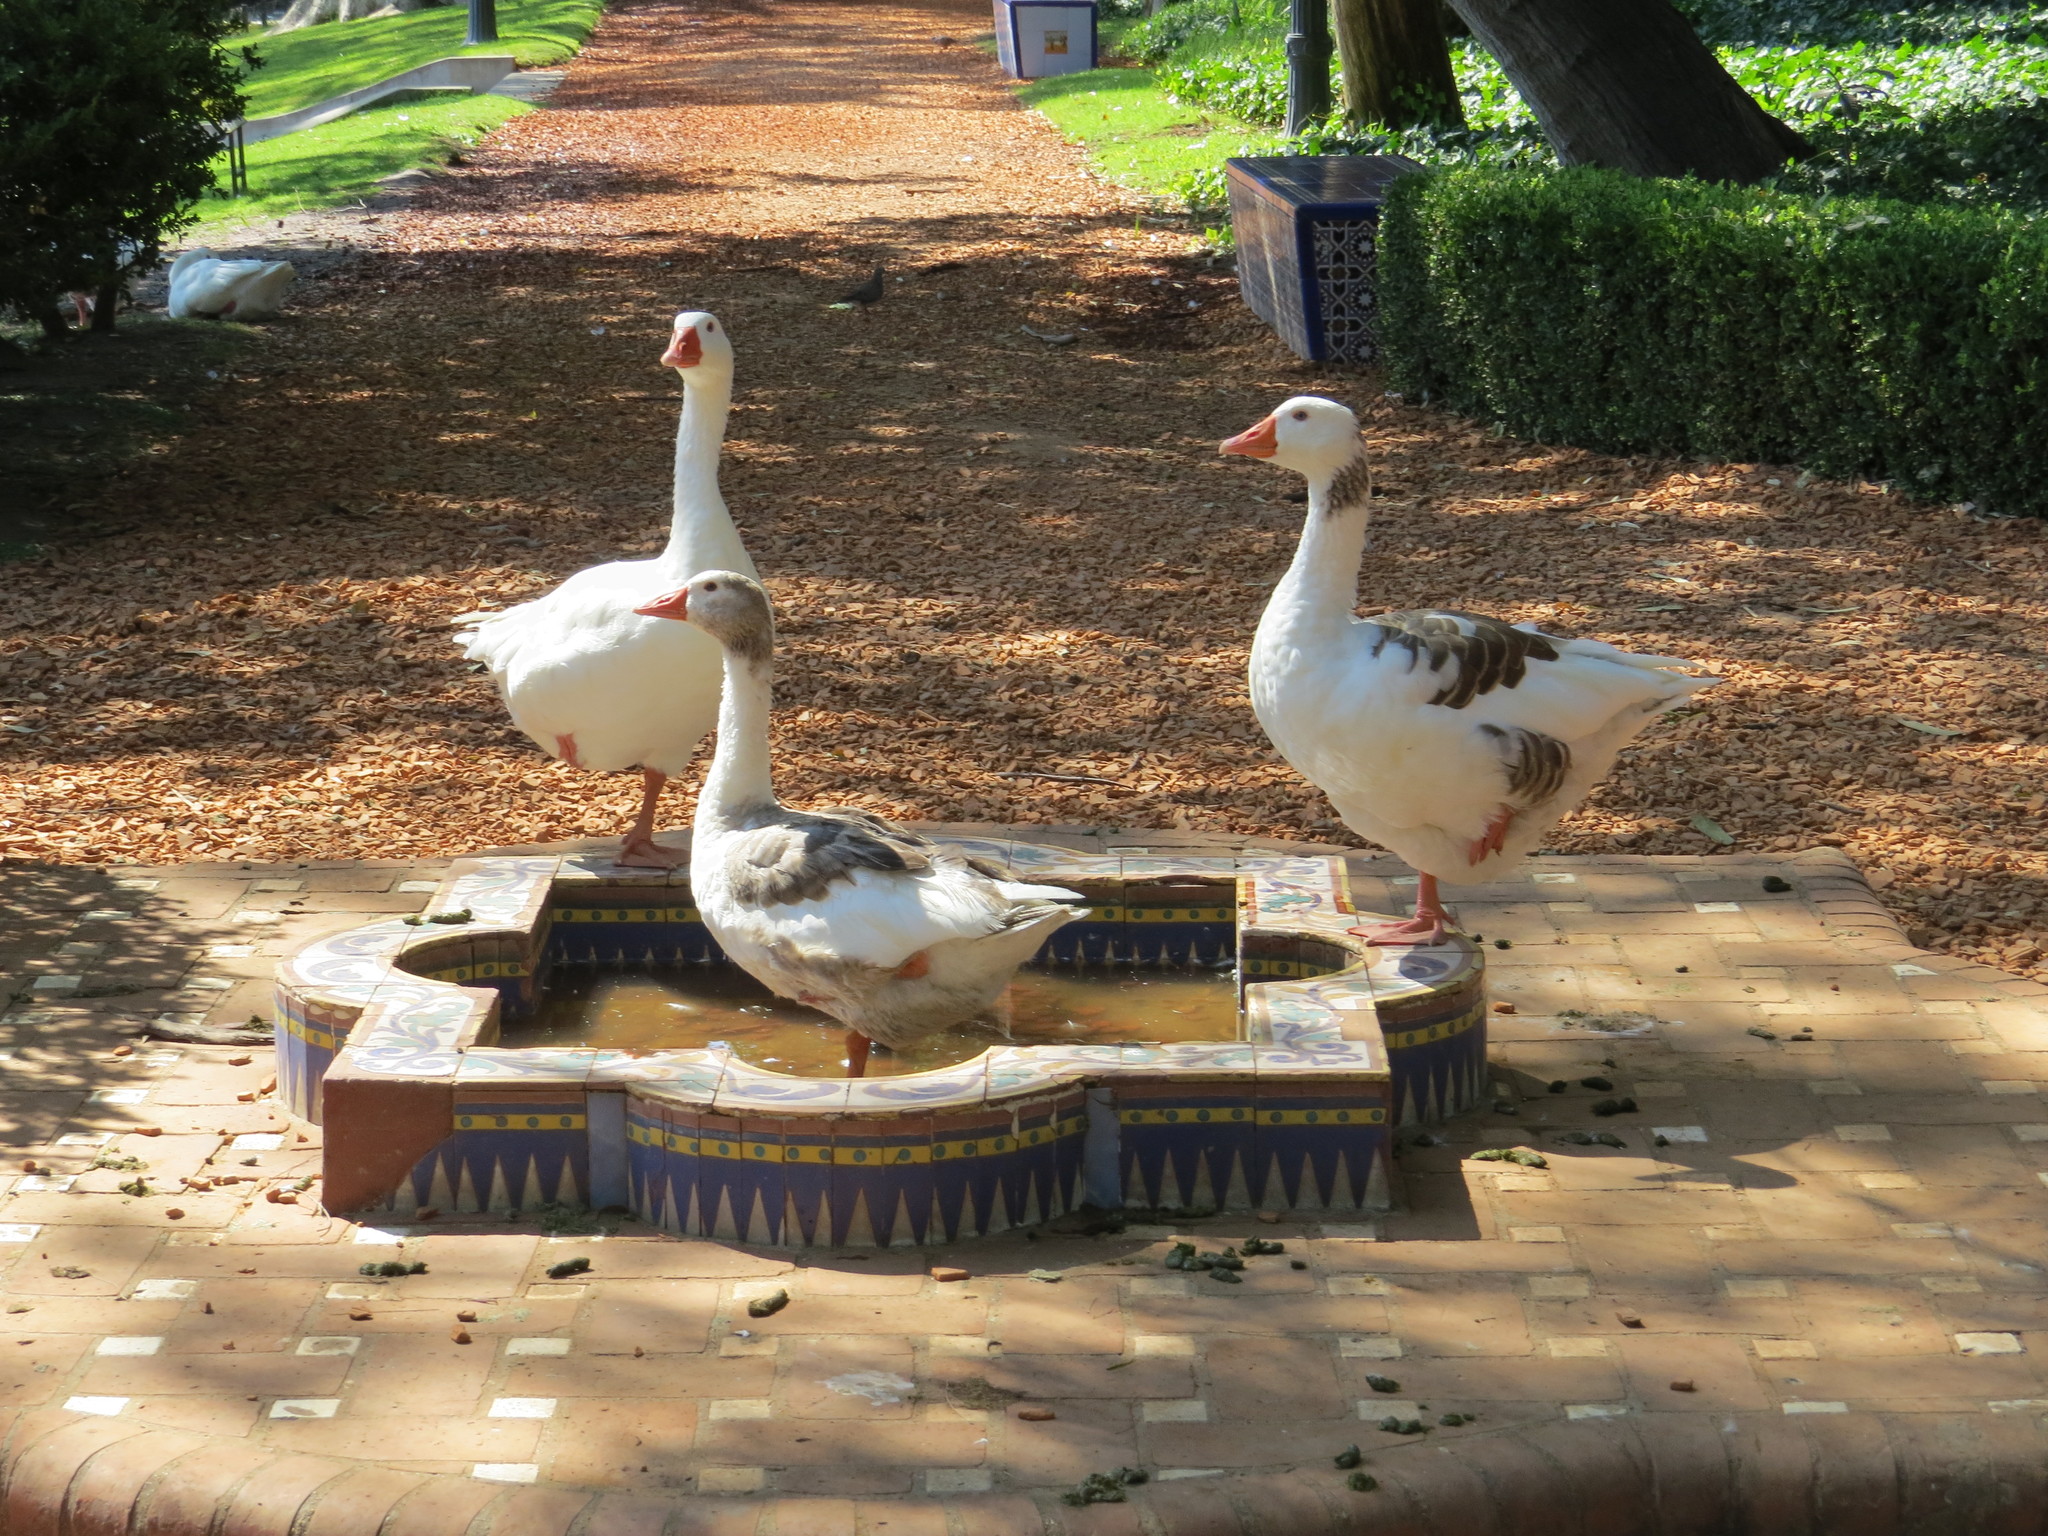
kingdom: Animalia
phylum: Chordata
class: Aves
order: Anseriformes
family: Anatidae
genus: Anser
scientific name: Anser anser
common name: Greylag goose
